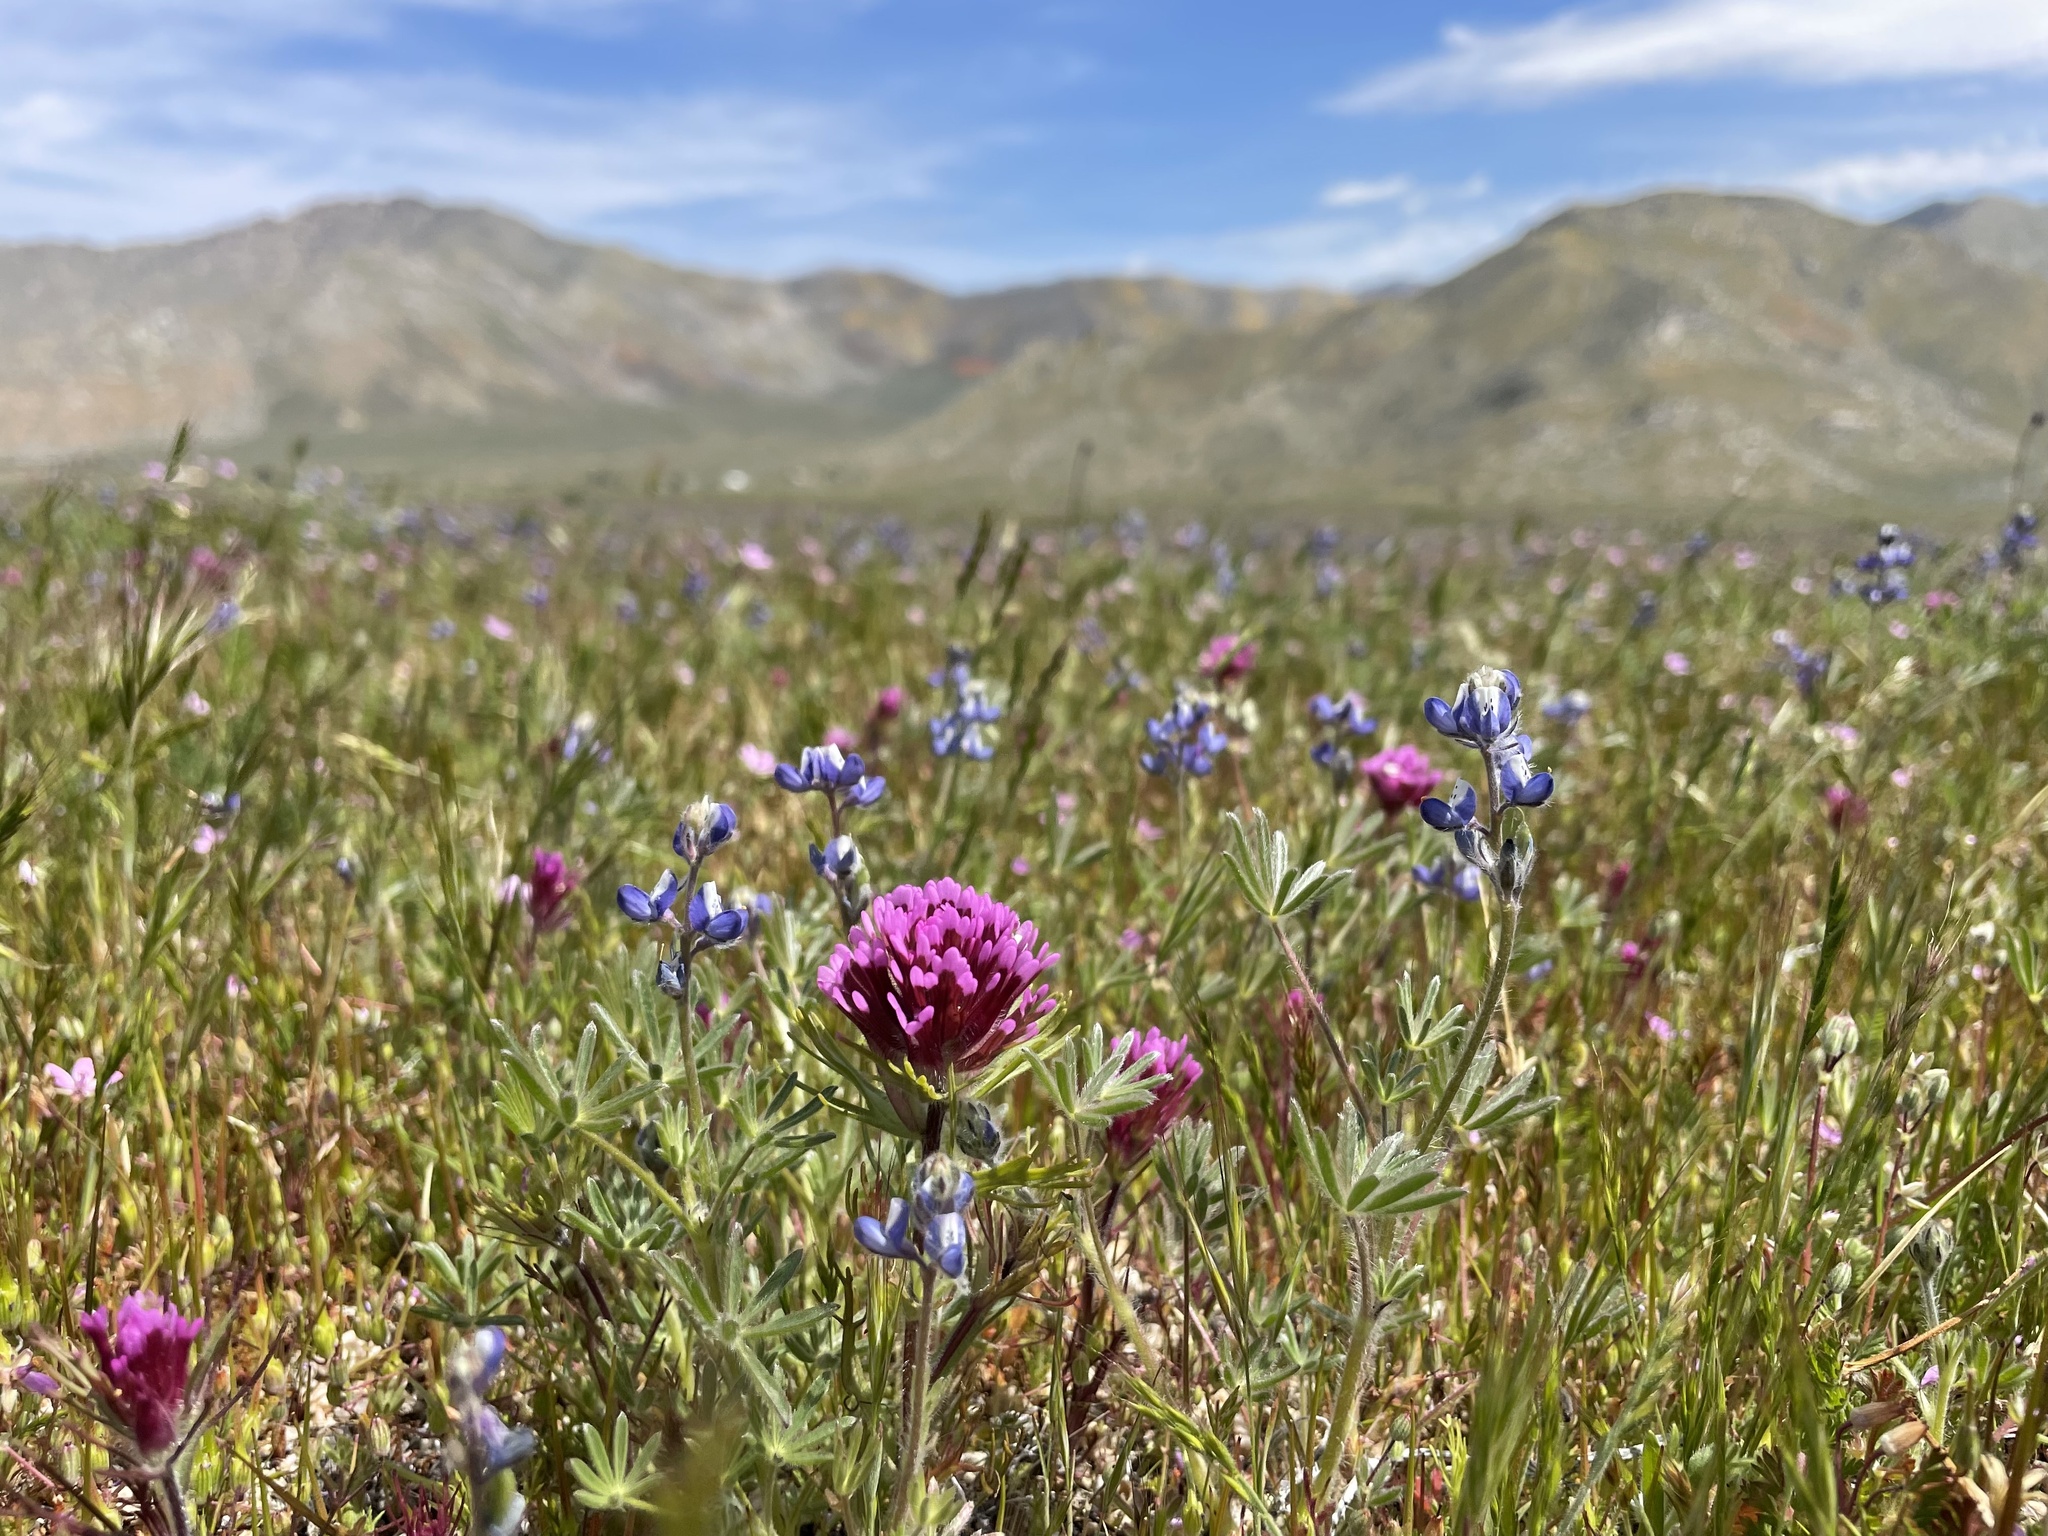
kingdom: Plantae
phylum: Tracheophyta
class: Magnoliopsida
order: Lamiales
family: Orobanchaceae
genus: Castilleja
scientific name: Castilleja exserta
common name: Purple owl-clover
